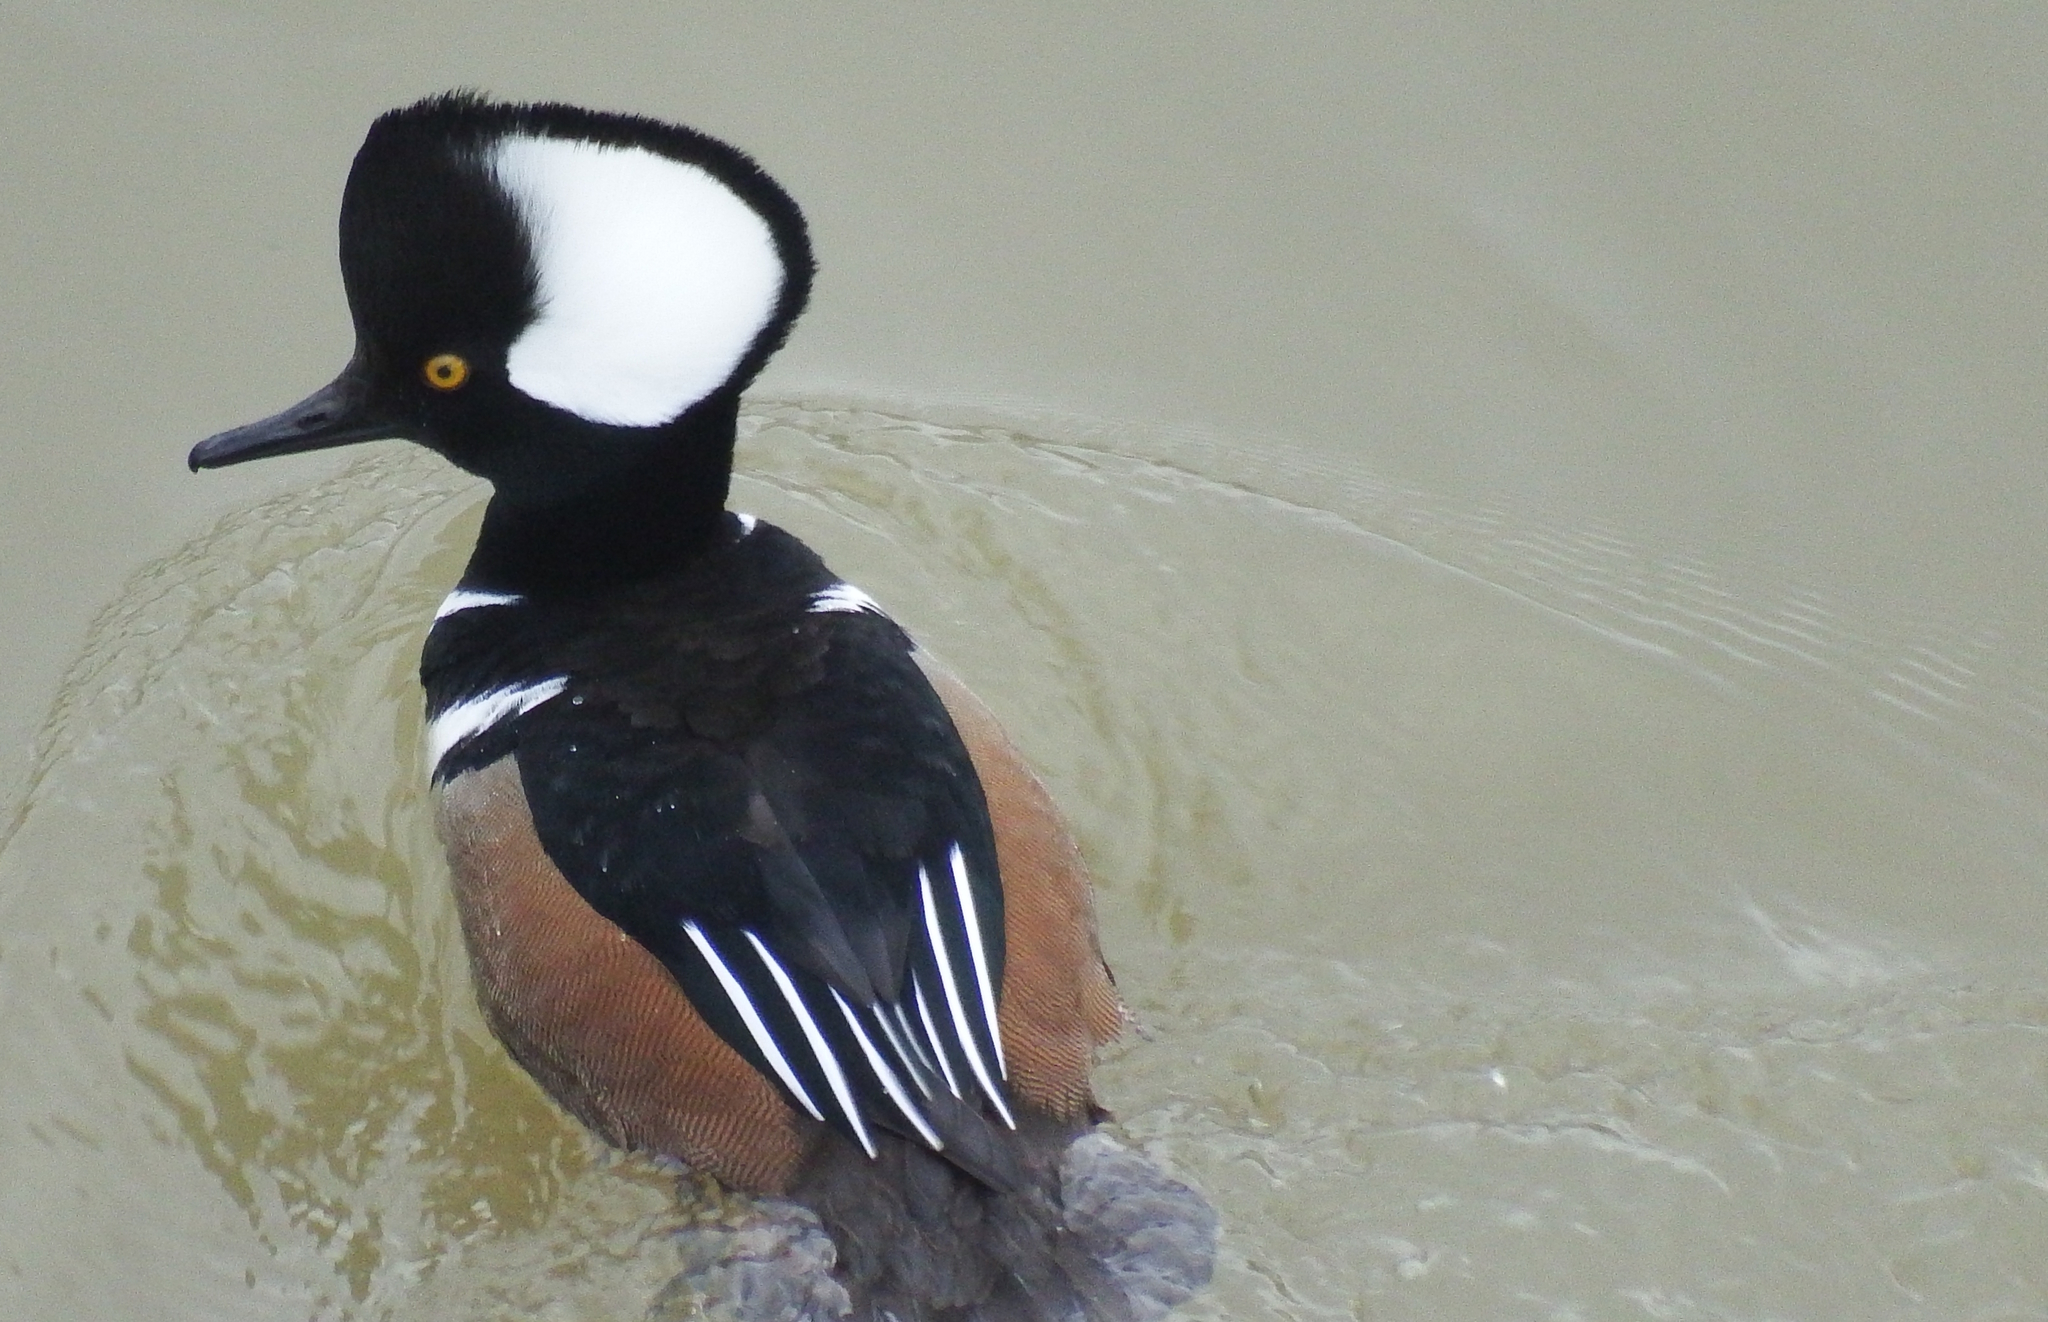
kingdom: Animalia
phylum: Chordata
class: Aves
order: Anseriformes
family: Anatidae
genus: Lophodytes
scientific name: Lophodytes cucullatus
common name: Hooded merganser
